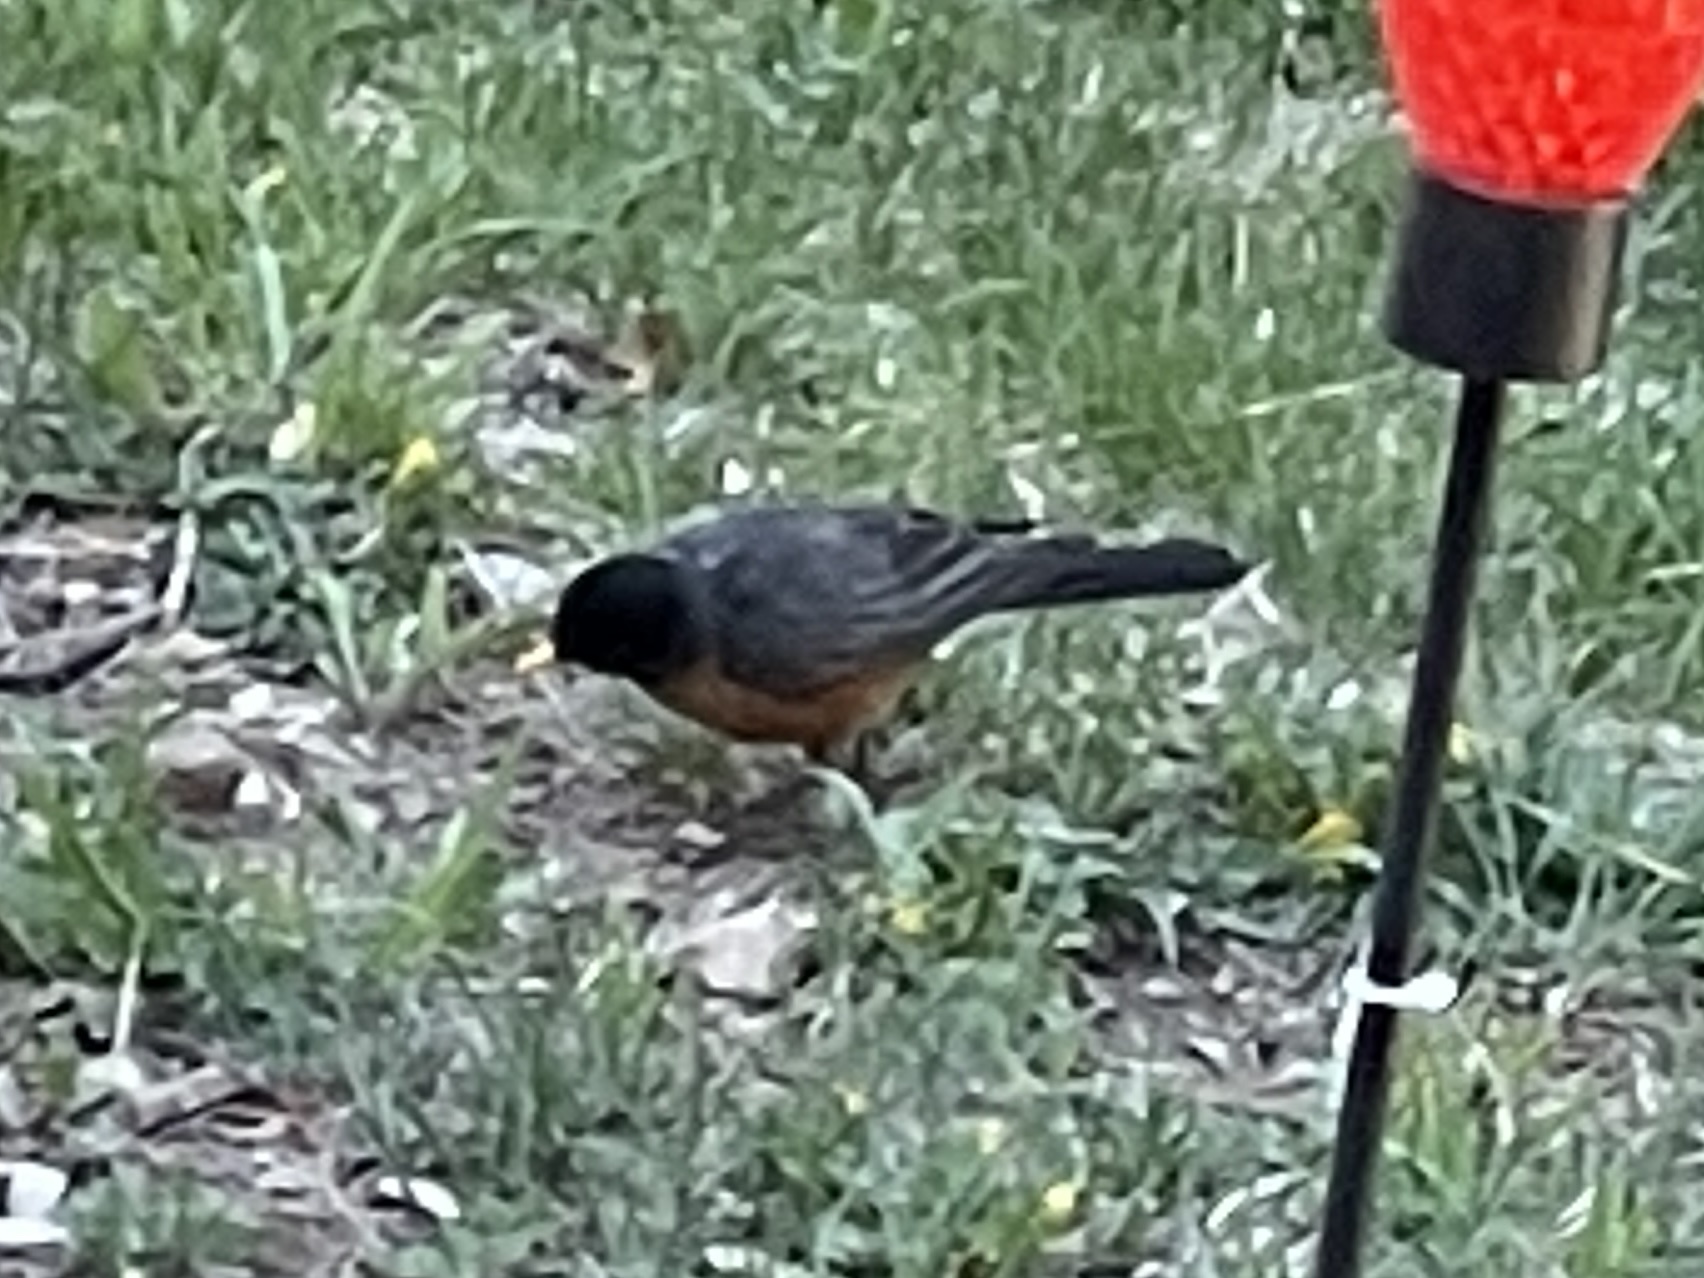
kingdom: Animalia
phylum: Chordata
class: Aves
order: Passeriformes
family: Turdidae
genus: Turdus
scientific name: Turdus migratorius
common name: American robin
